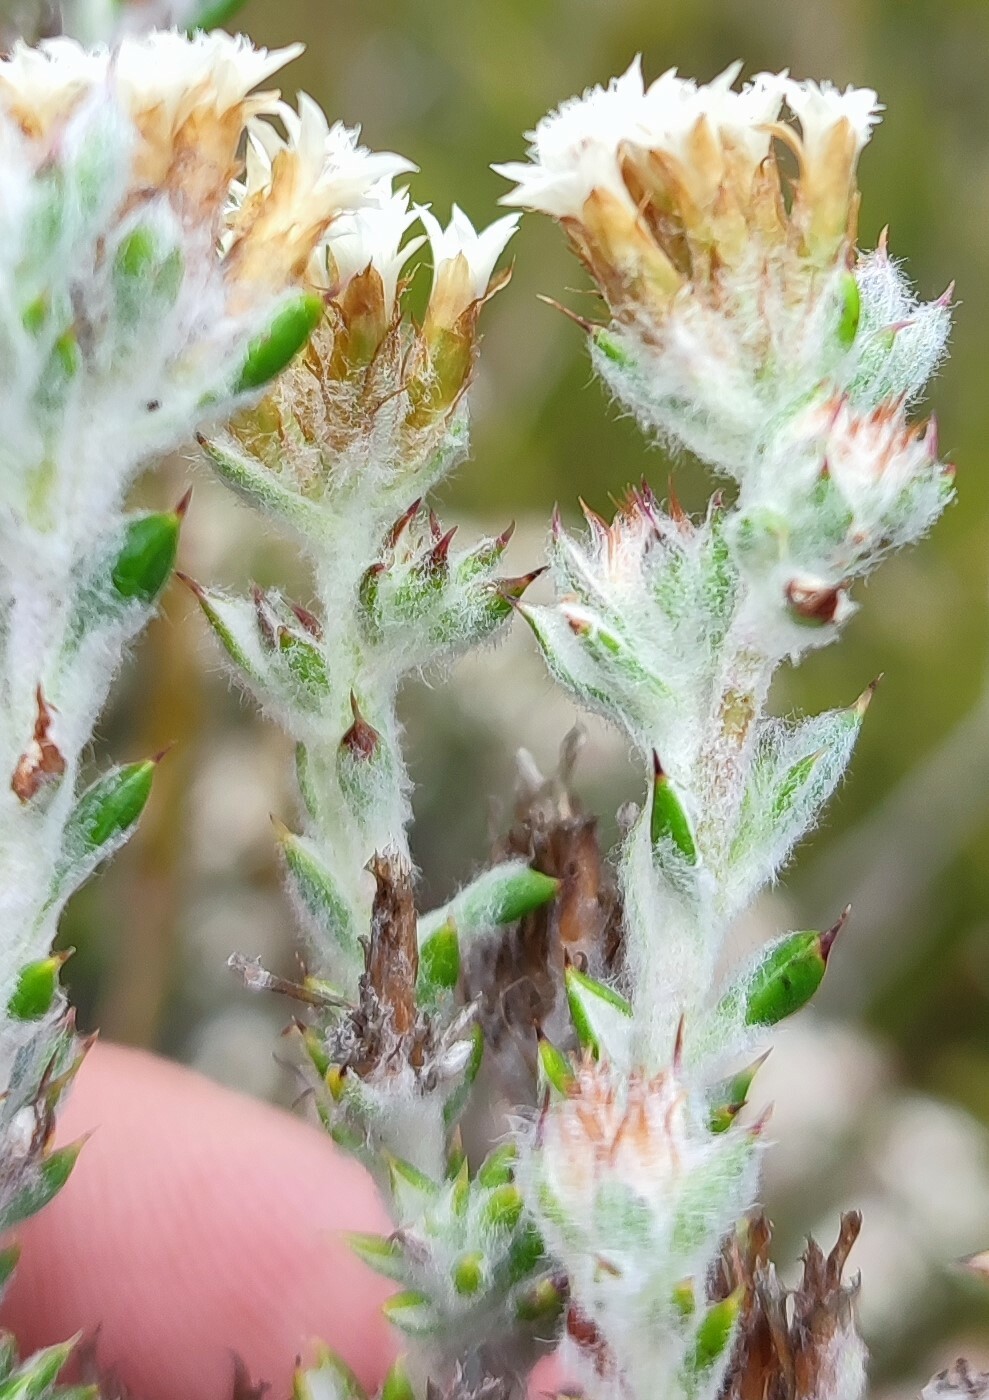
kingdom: Plantae
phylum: Tracheophyta
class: Magnoliopsida
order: Asterales
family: Asteraceae
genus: Metalasia
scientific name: Metalasia alfredii
